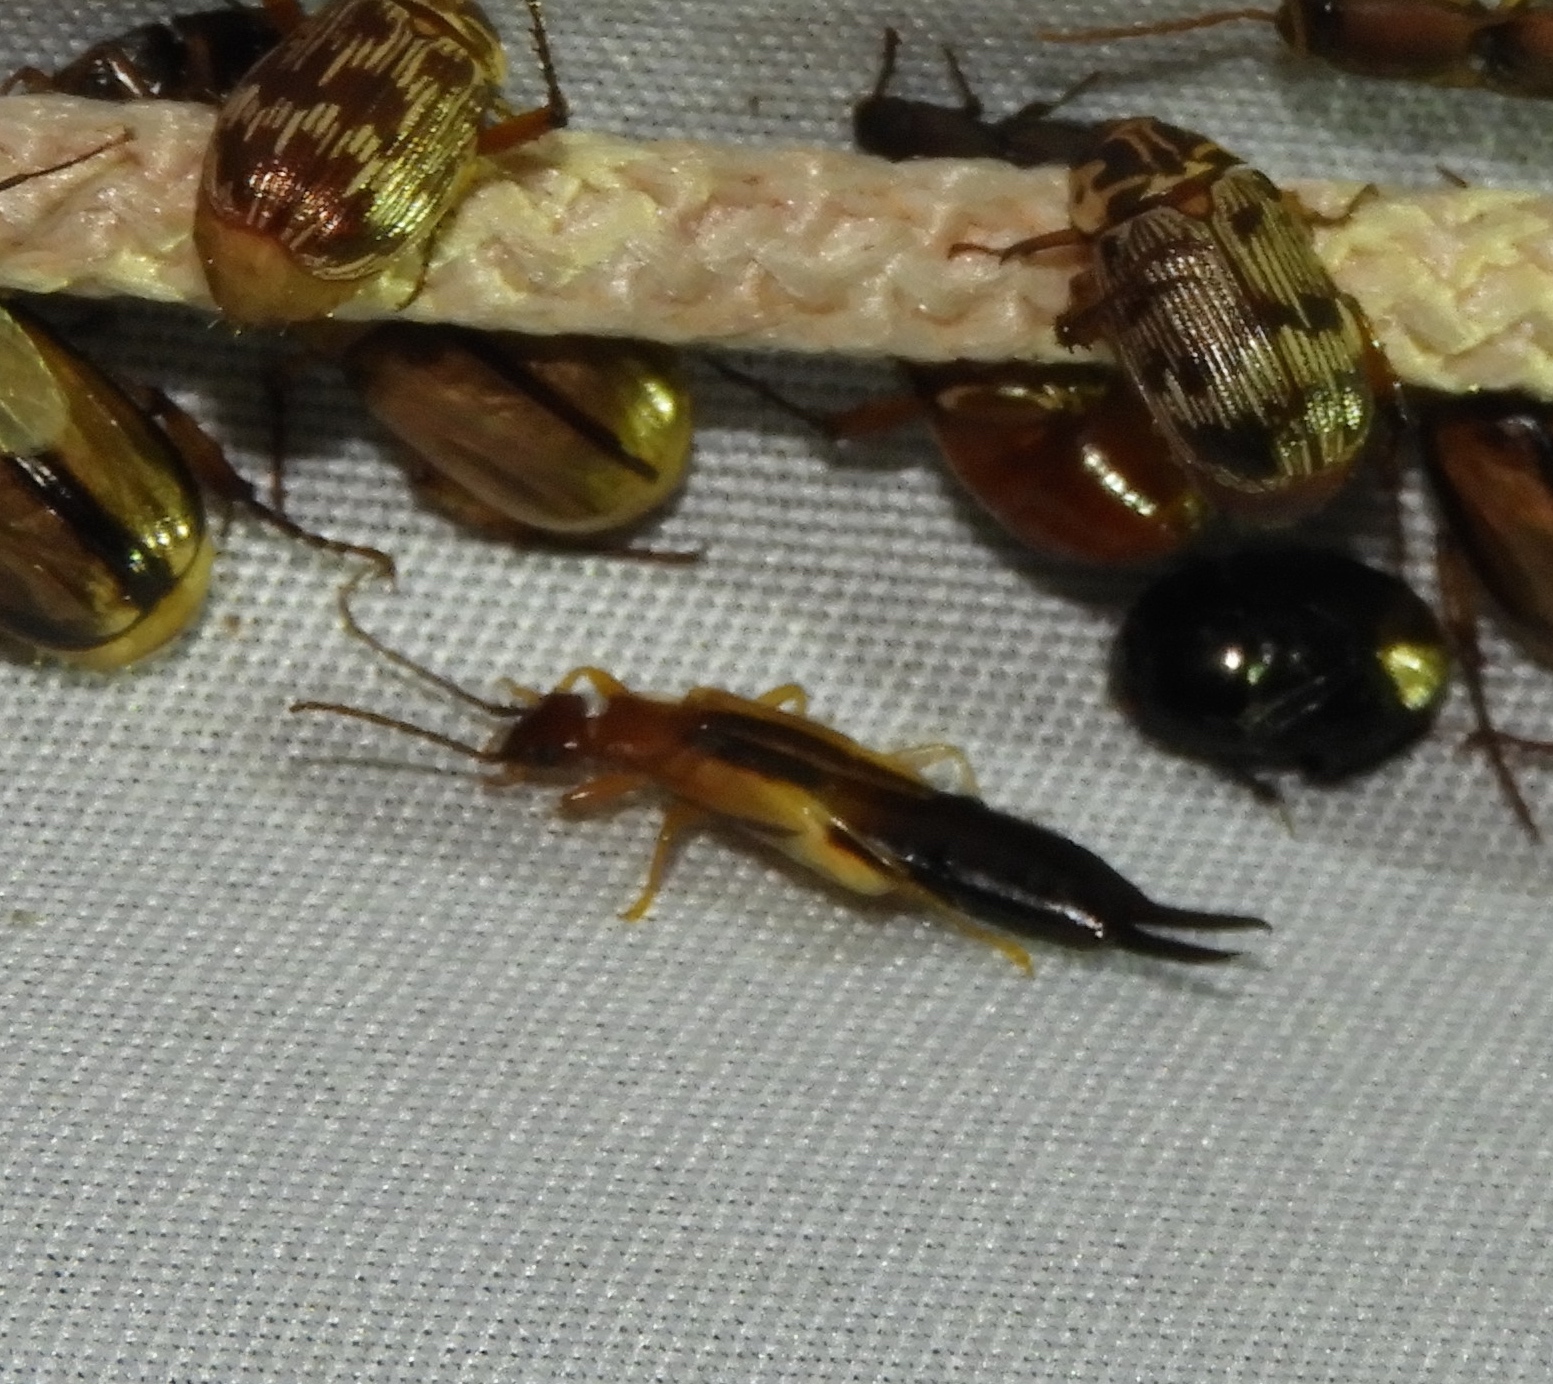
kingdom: Animalia
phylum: Arthropoda
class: Insecta
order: Dermaptera
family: Forficulidae
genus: Doru
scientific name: Doru taeniatum
